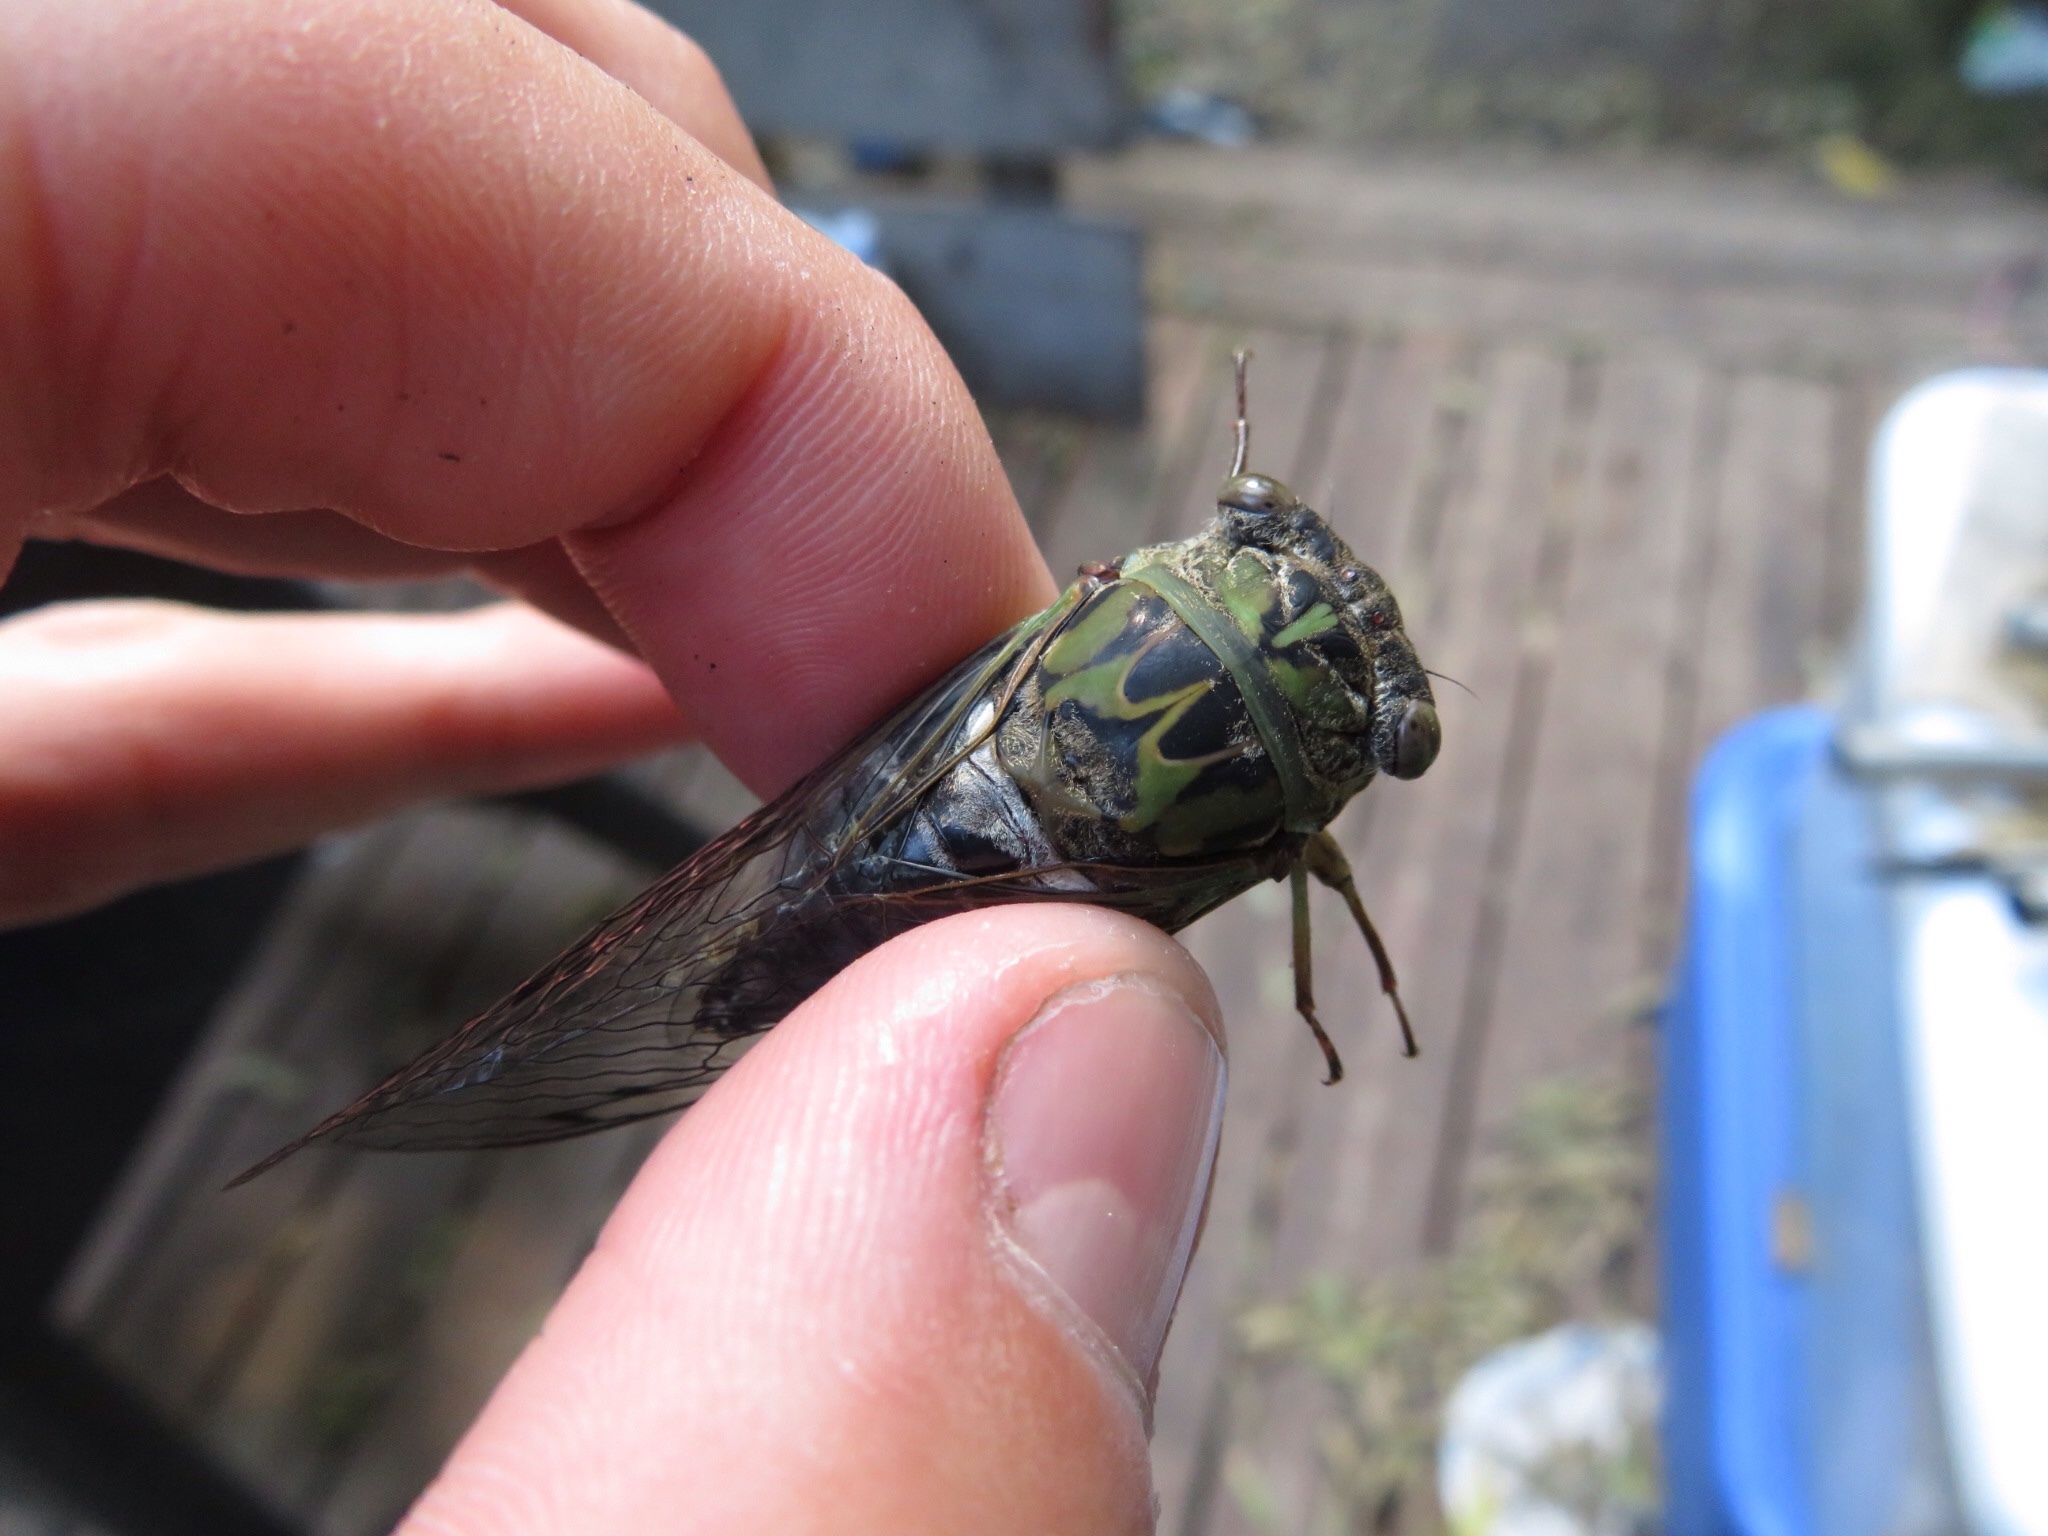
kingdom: Animalia
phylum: Arthropoda
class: Insecta
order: Hemiptera
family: Cicadidae
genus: Neotibicen
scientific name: Neotibicen pruinosus
